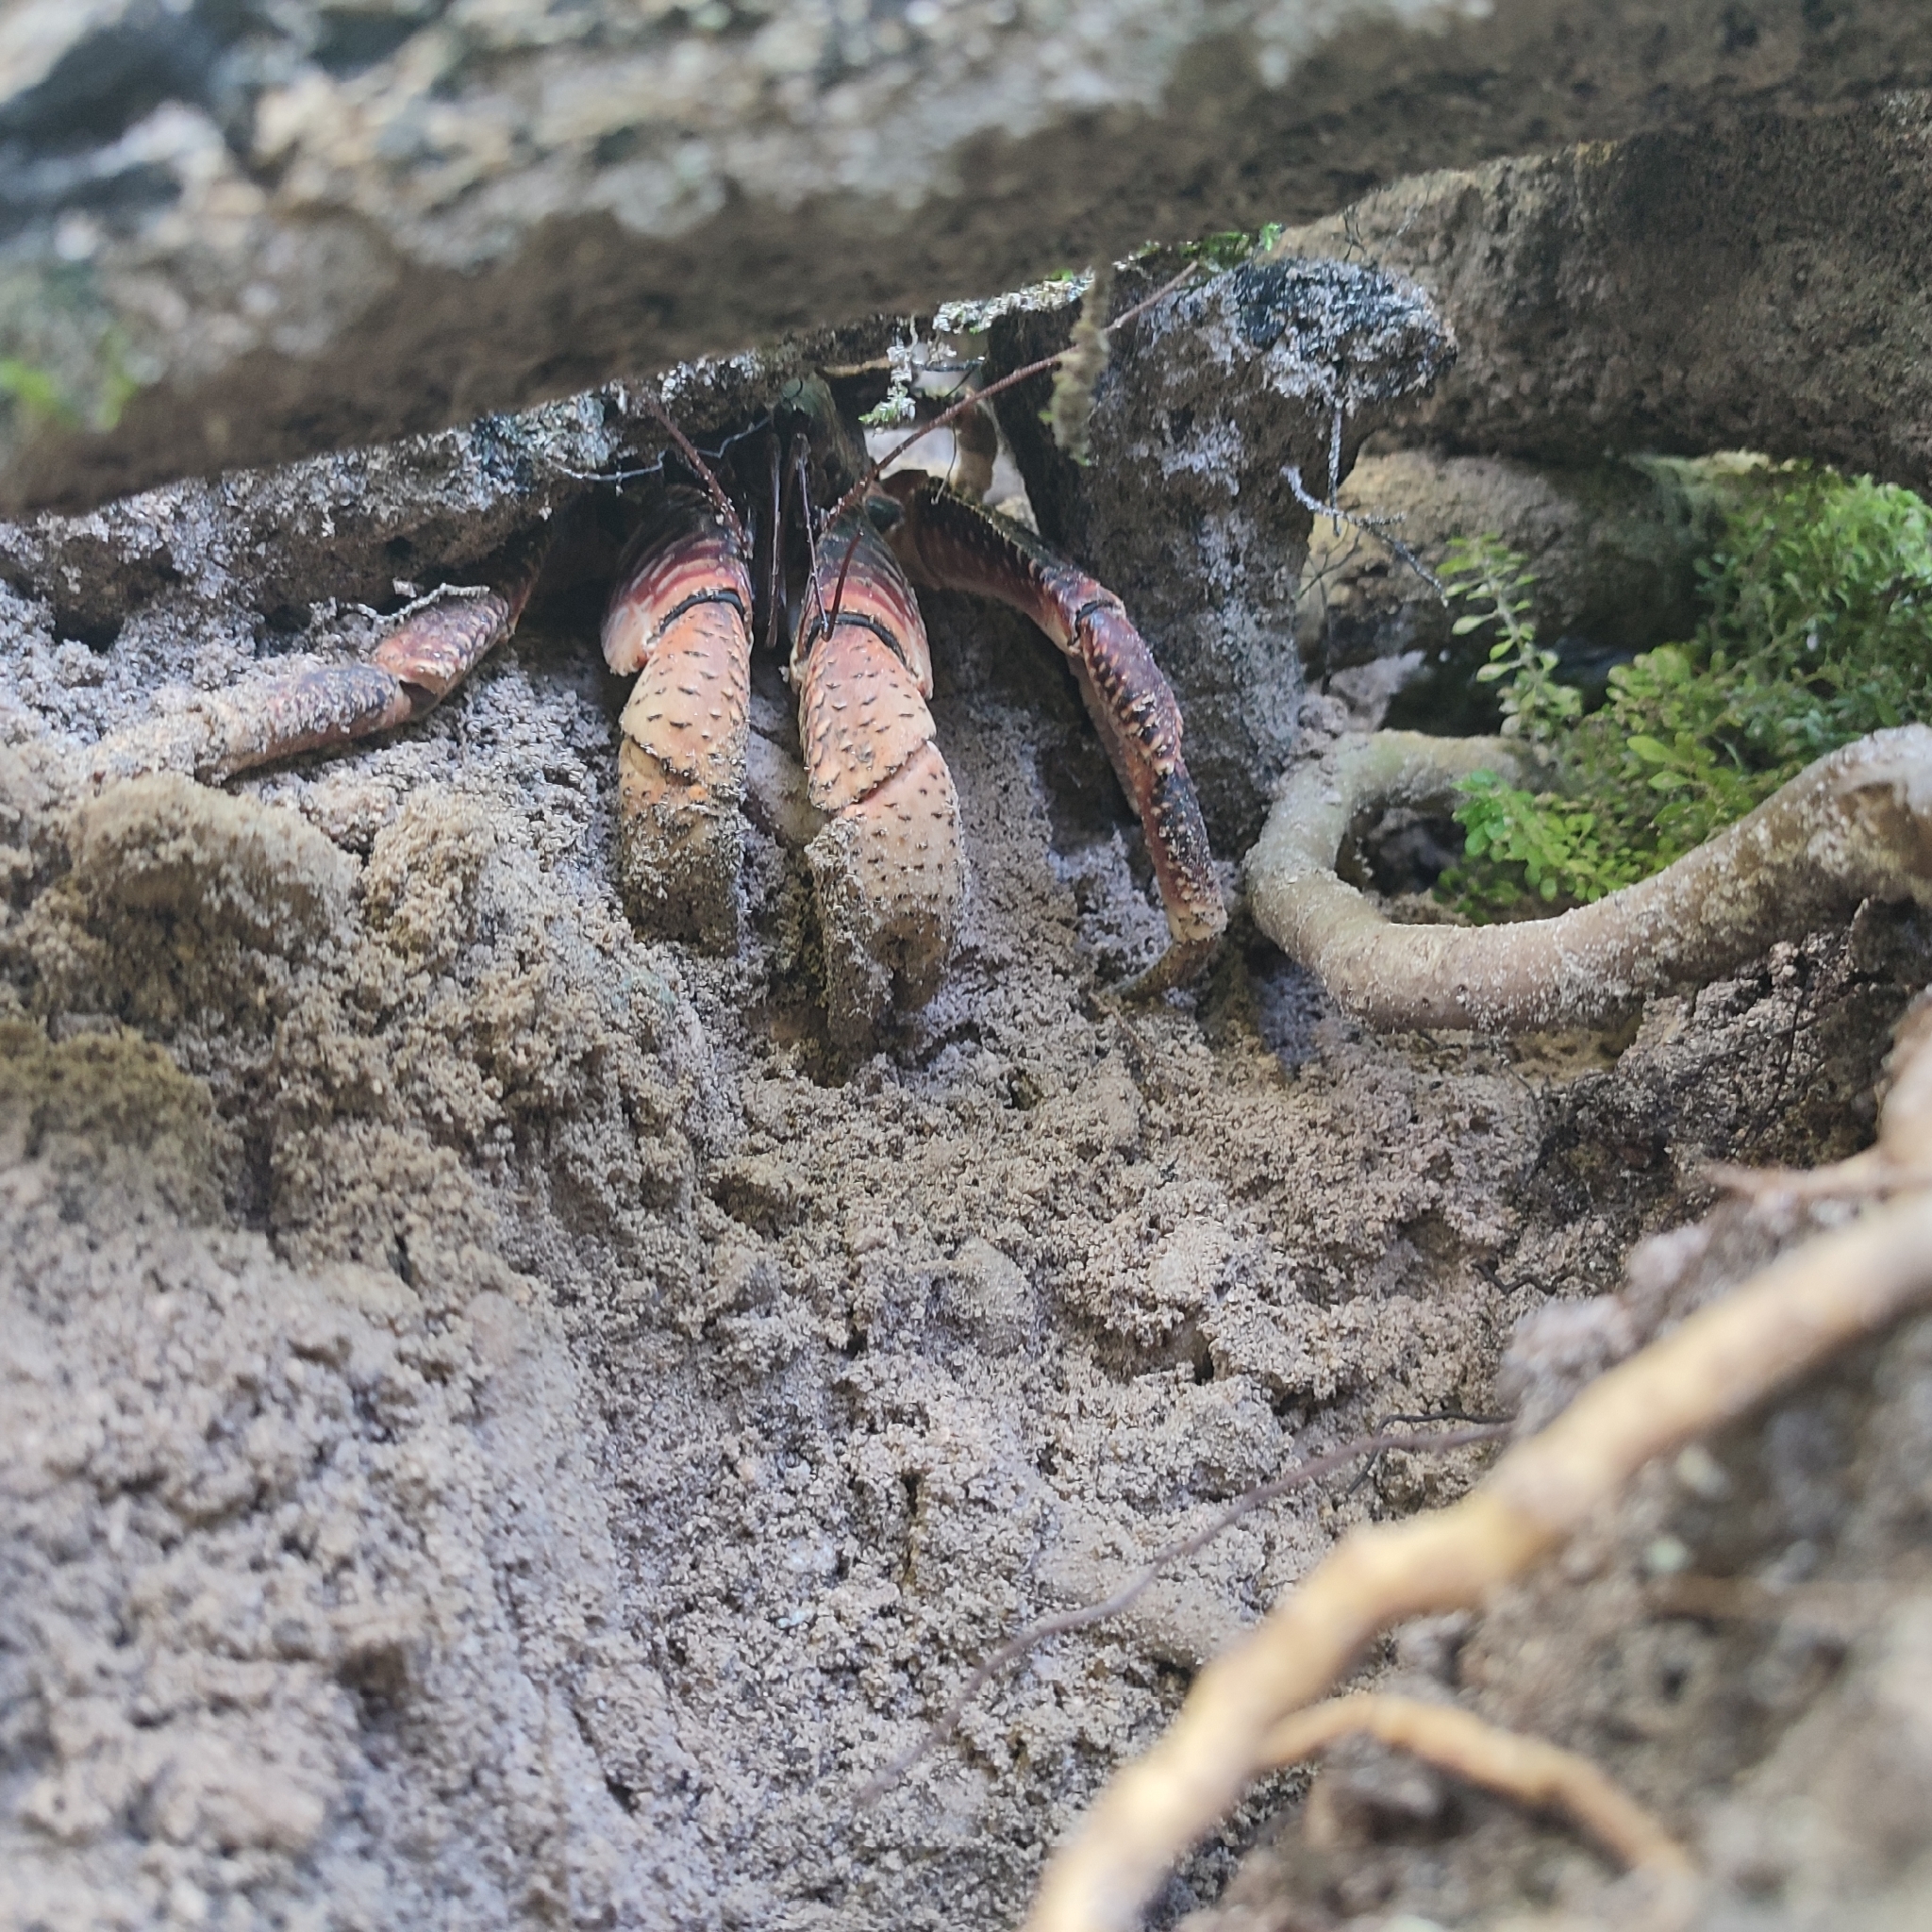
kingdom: Animalia
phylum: Arthropoda
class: Malacostraca
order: Decapoda
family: Coenobitidae
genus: Birgus
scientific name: Birgus latro
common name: Coconut crab
